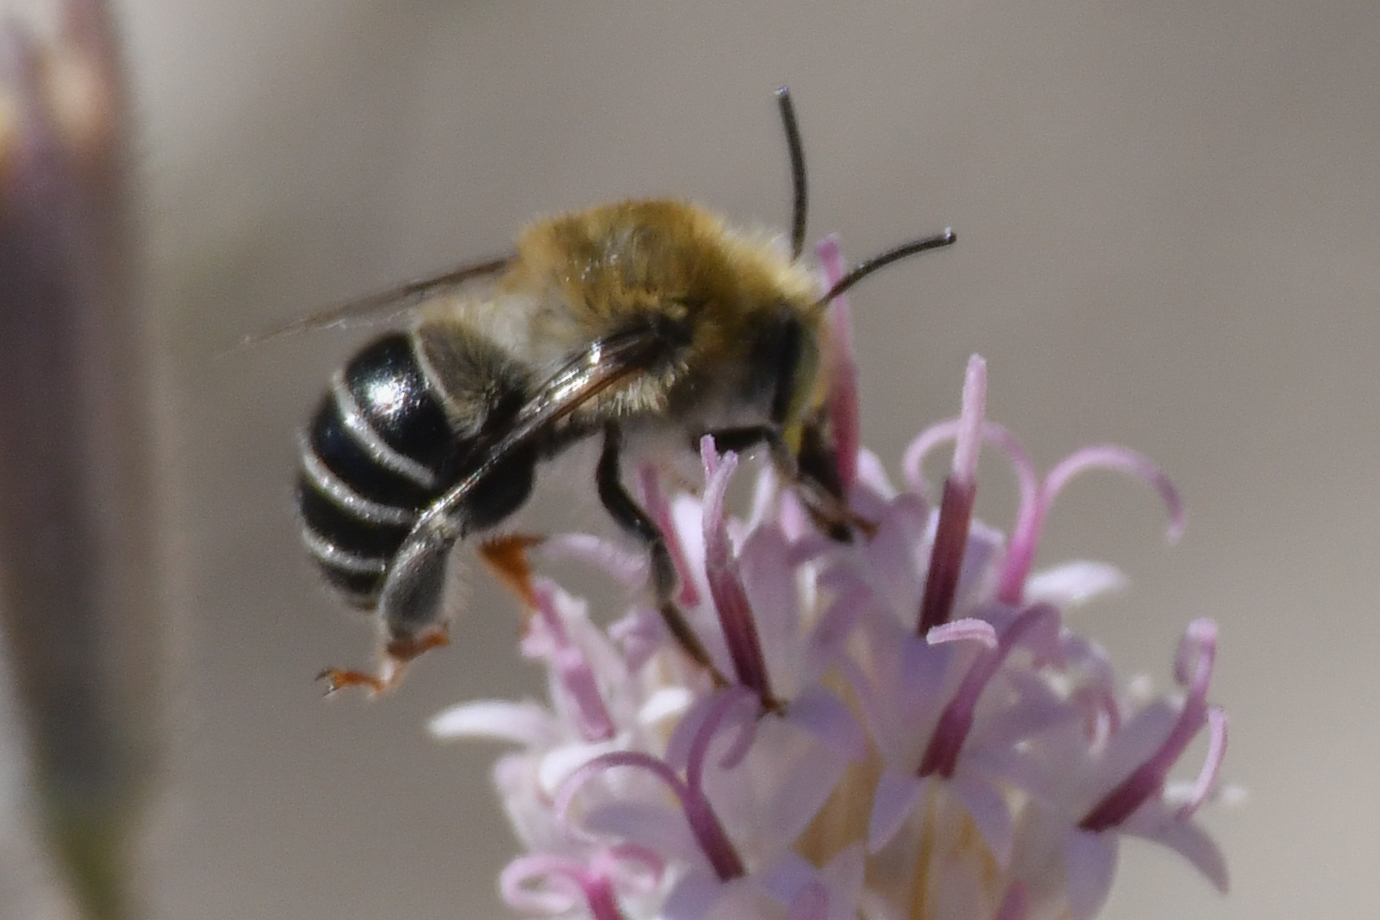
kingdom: Animalia
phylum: Arthropoda
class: Insecta
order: Hymenoptera
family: Apidae
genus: Anthophora
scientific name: Anthophora californica
